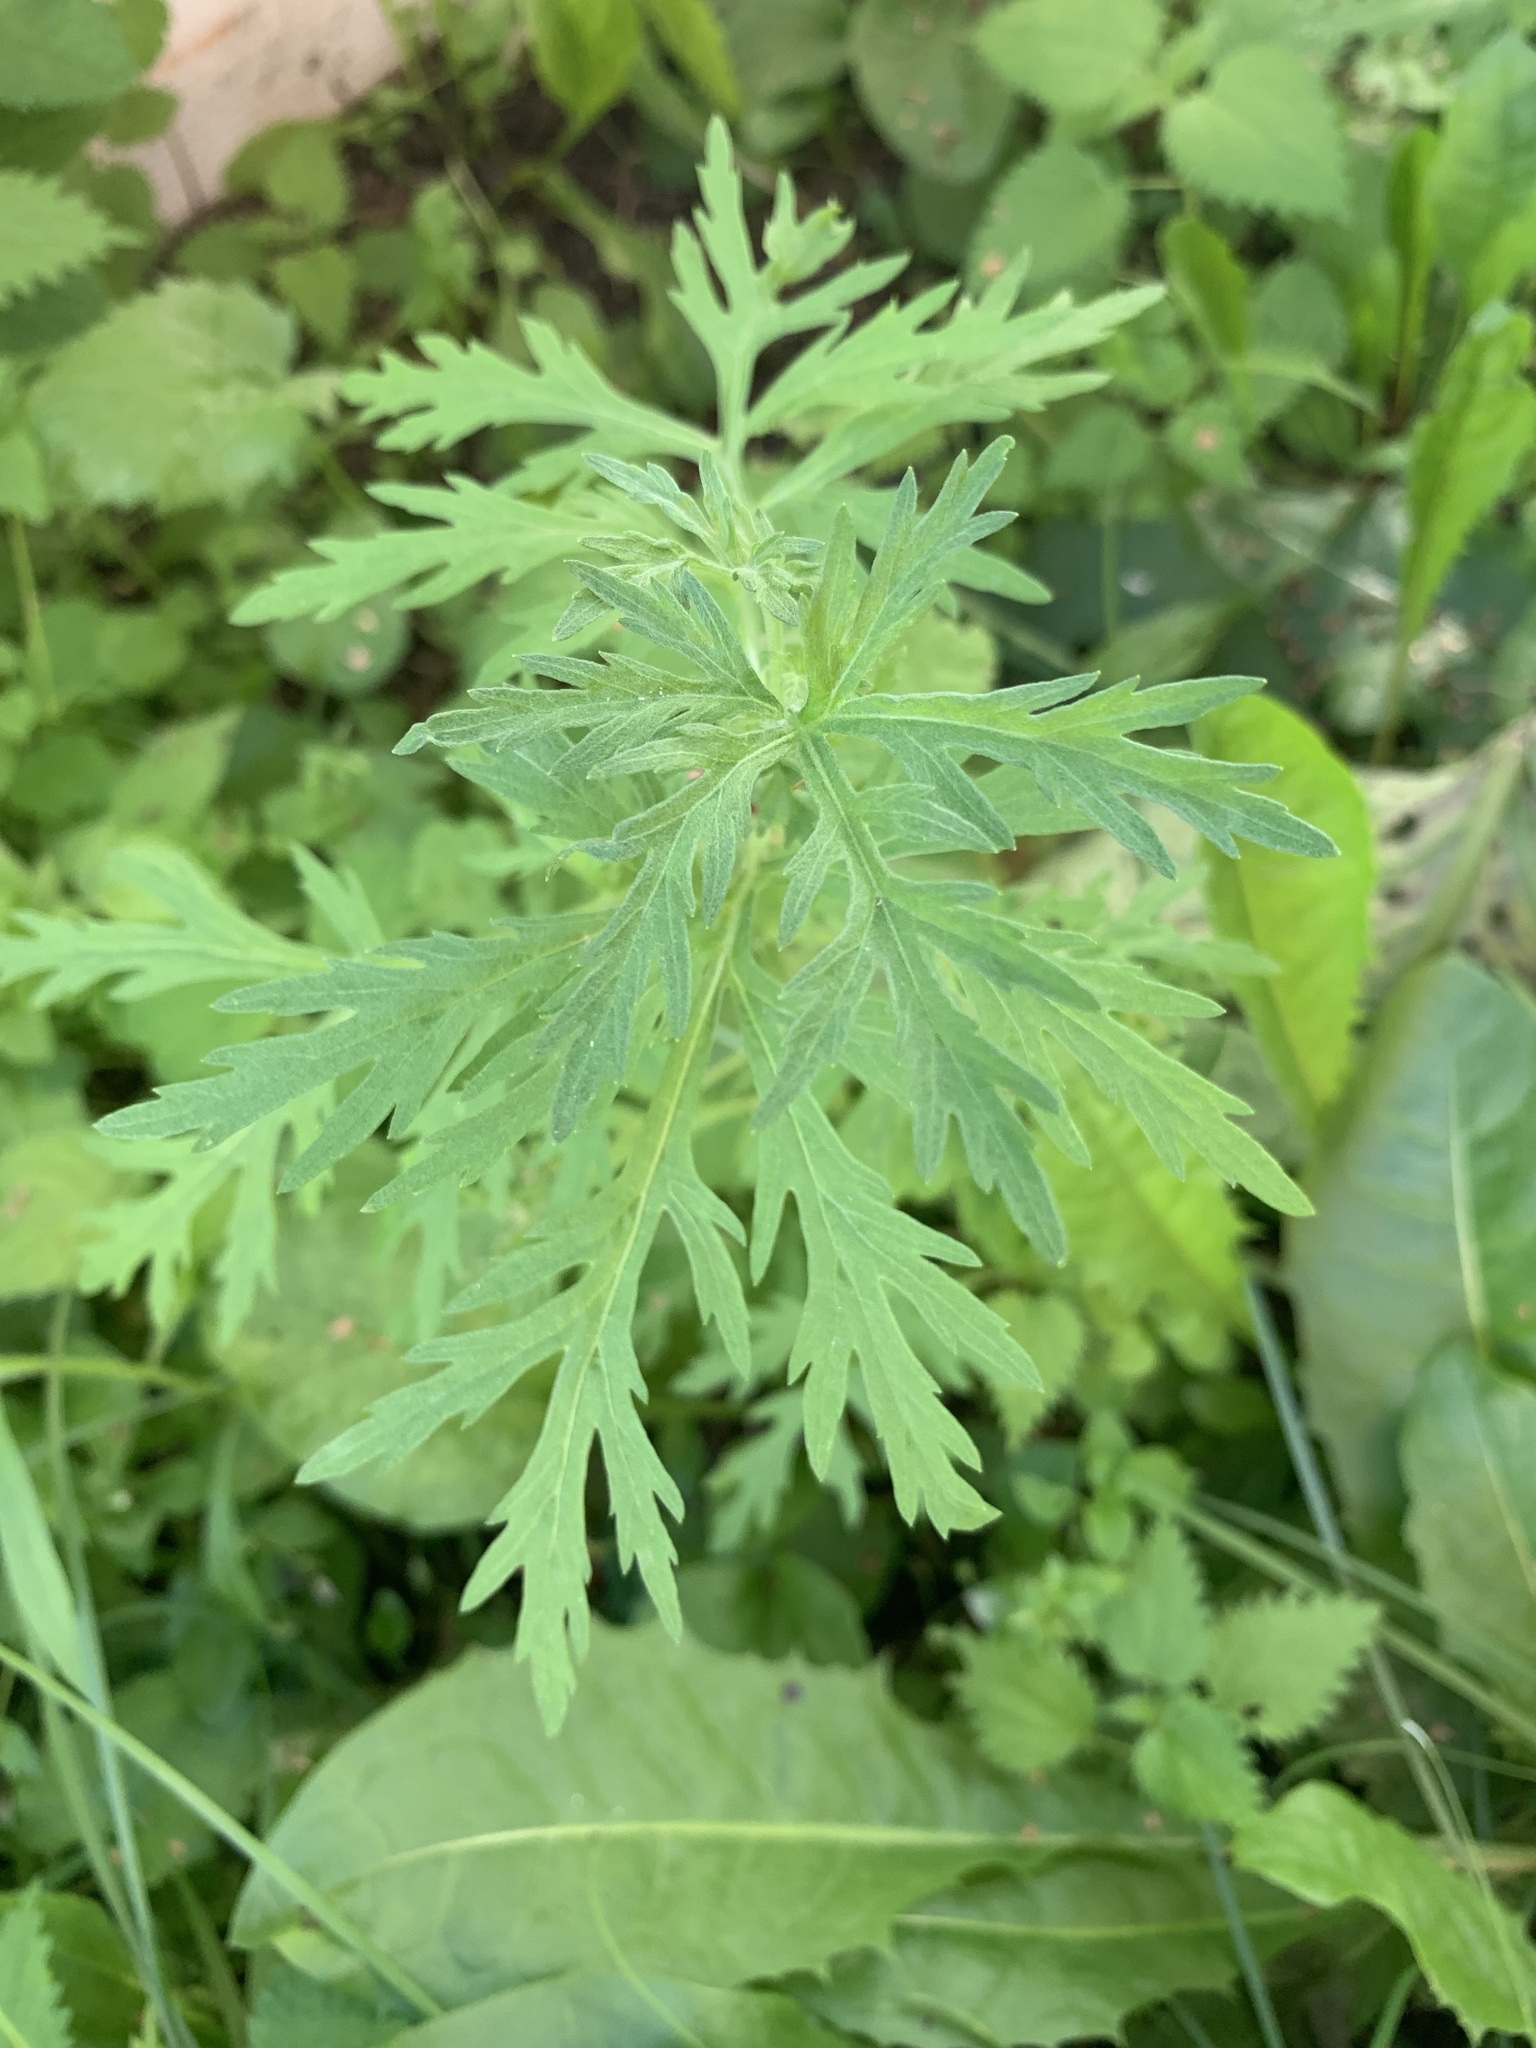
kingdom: Plantae
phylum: Tracheophyta
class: Magnoliopsida
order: Asterales
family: Asteraceae
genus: Artemisia
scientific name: Artemisia sieversiana
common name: Sieversian wormwood
